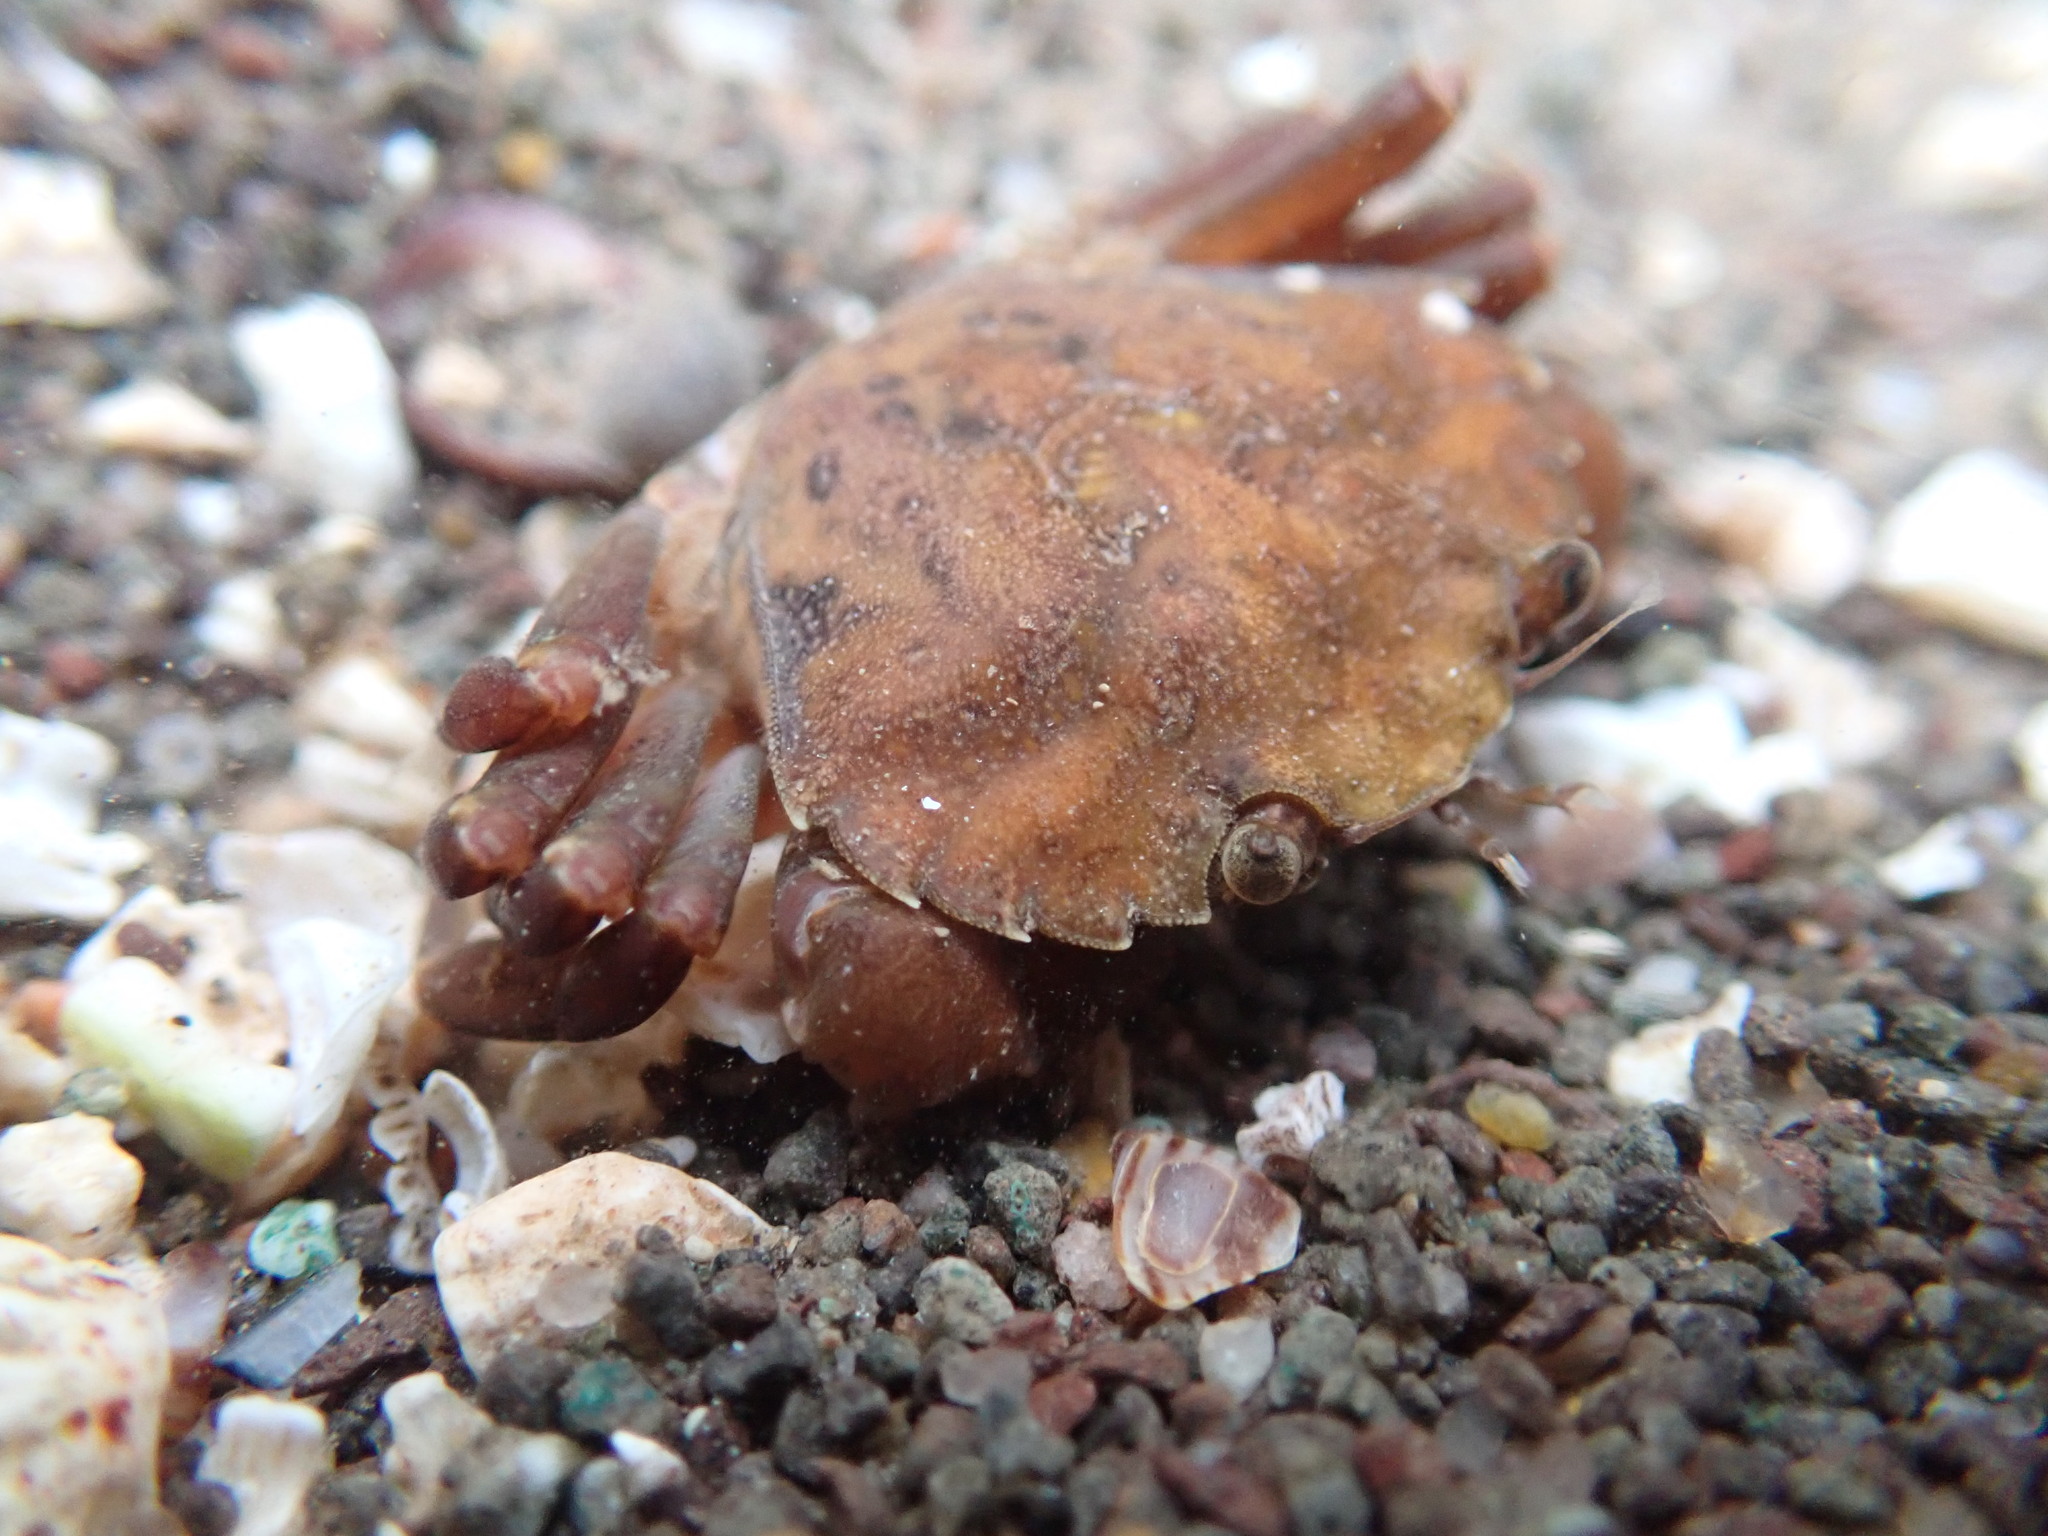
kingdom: Animalia
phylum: Arthropoda
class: Malacostraca
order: Decapoda
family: Carcinidae
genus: Carcinus
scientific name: Carcinus maenas
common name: European green crab
